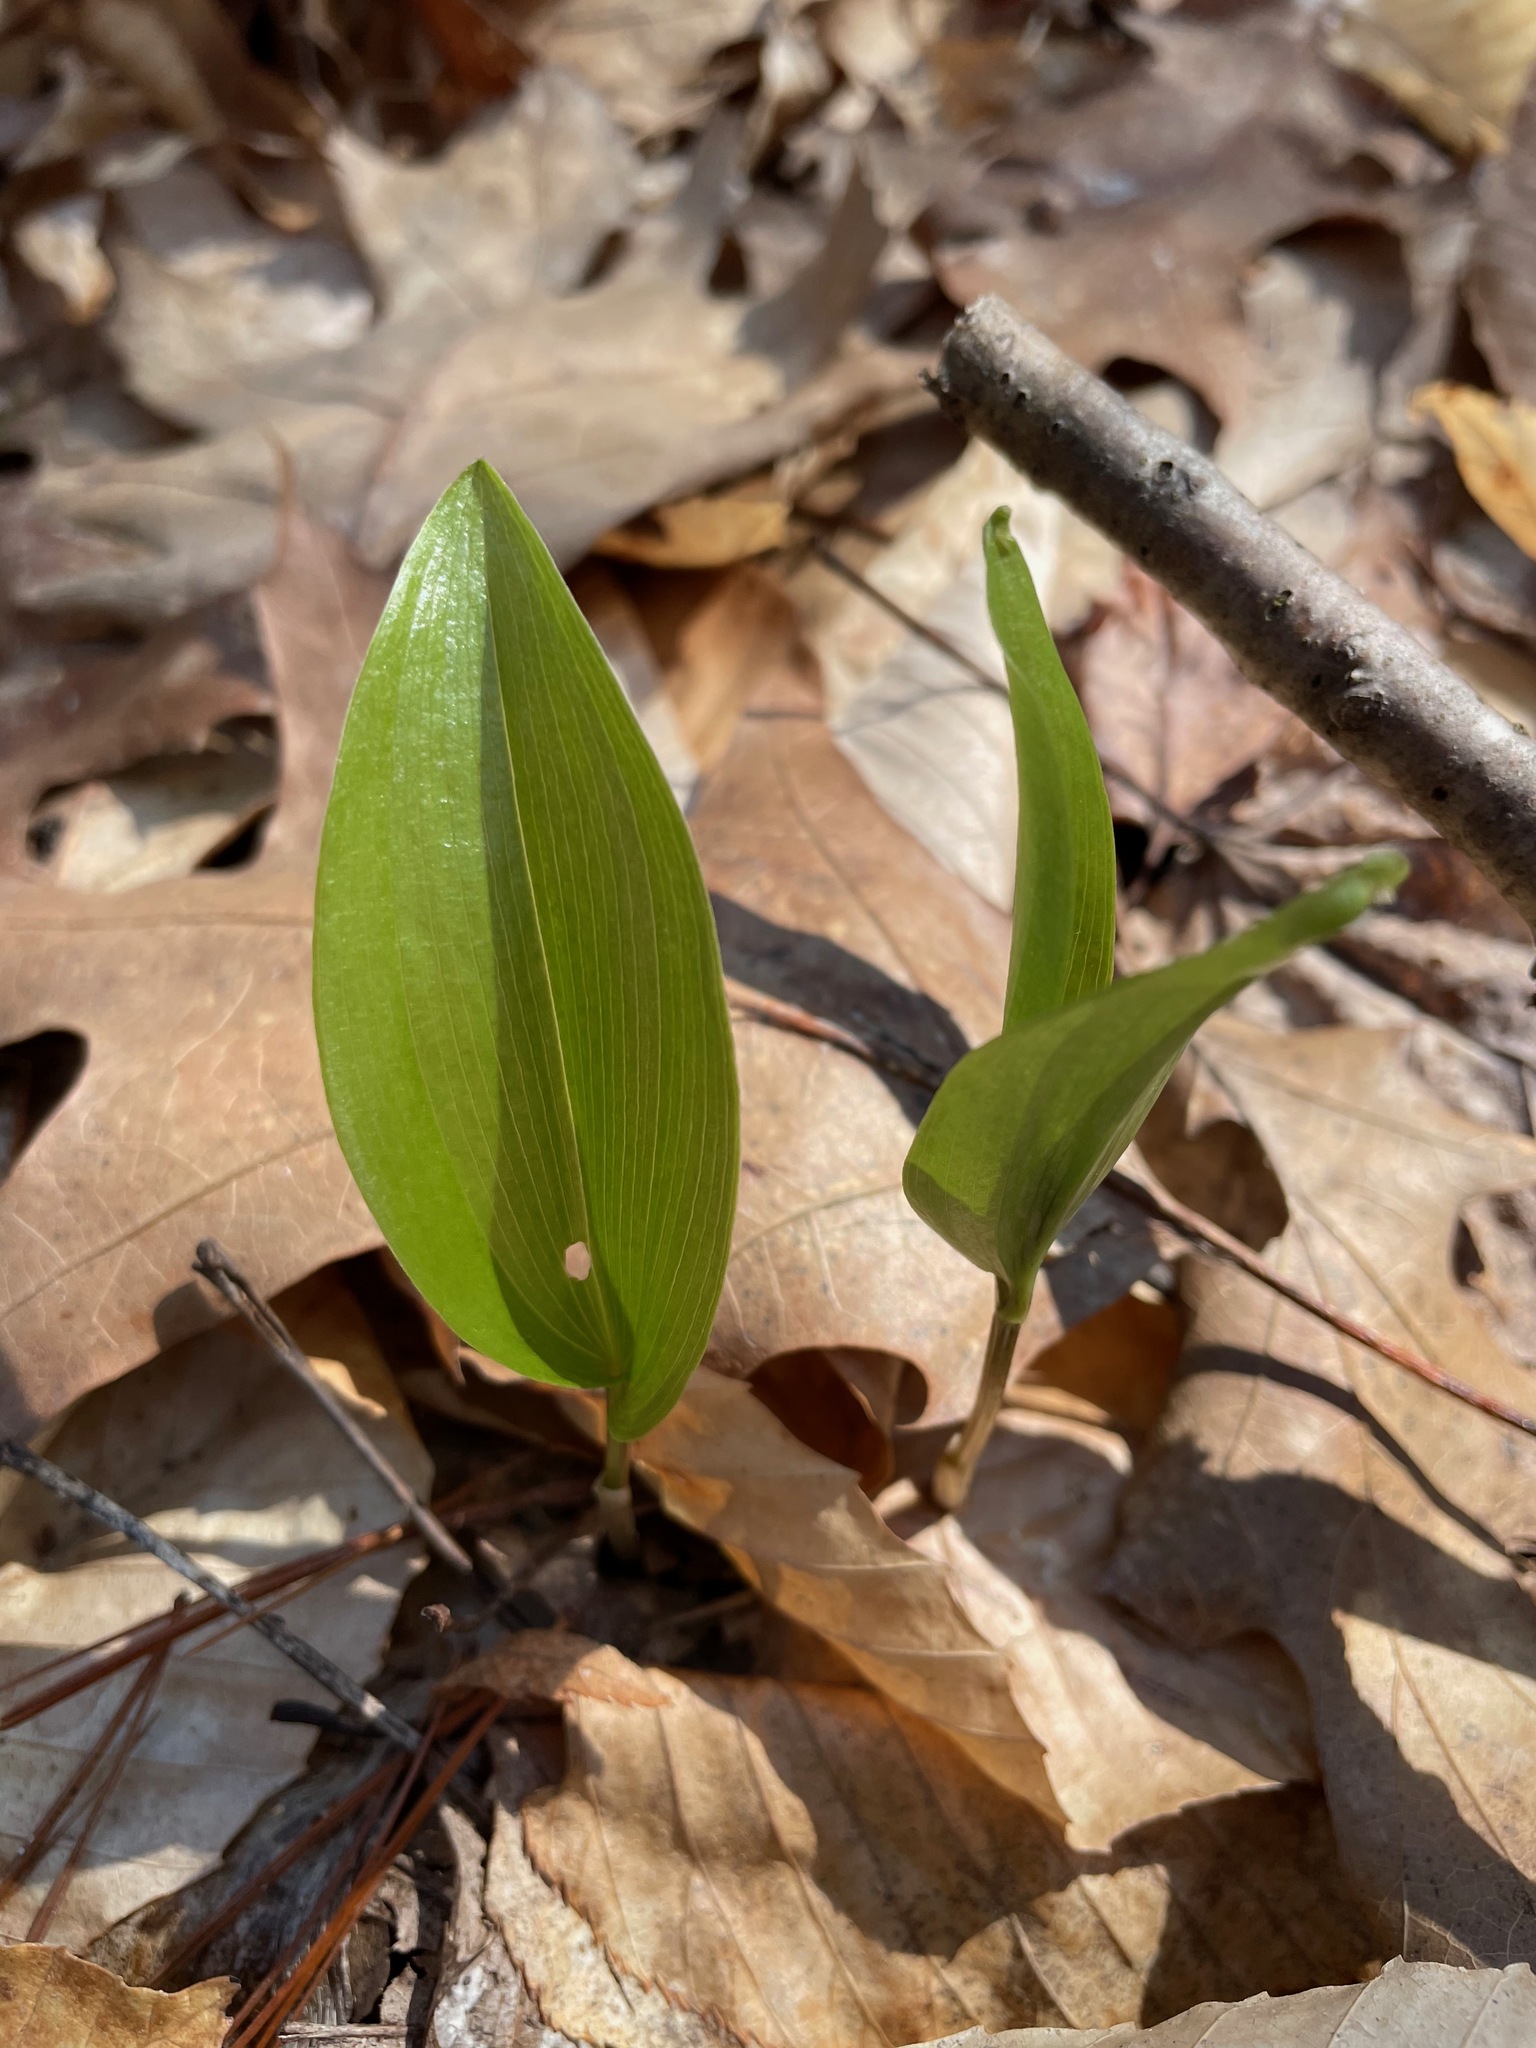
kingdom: Plantae
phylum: Tracheophyta
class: Liliopsida
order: Asparagales
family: Asparagaceae
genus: Maianthemum
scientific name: Maianthemum canadense
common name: False lily-of-the-valley
